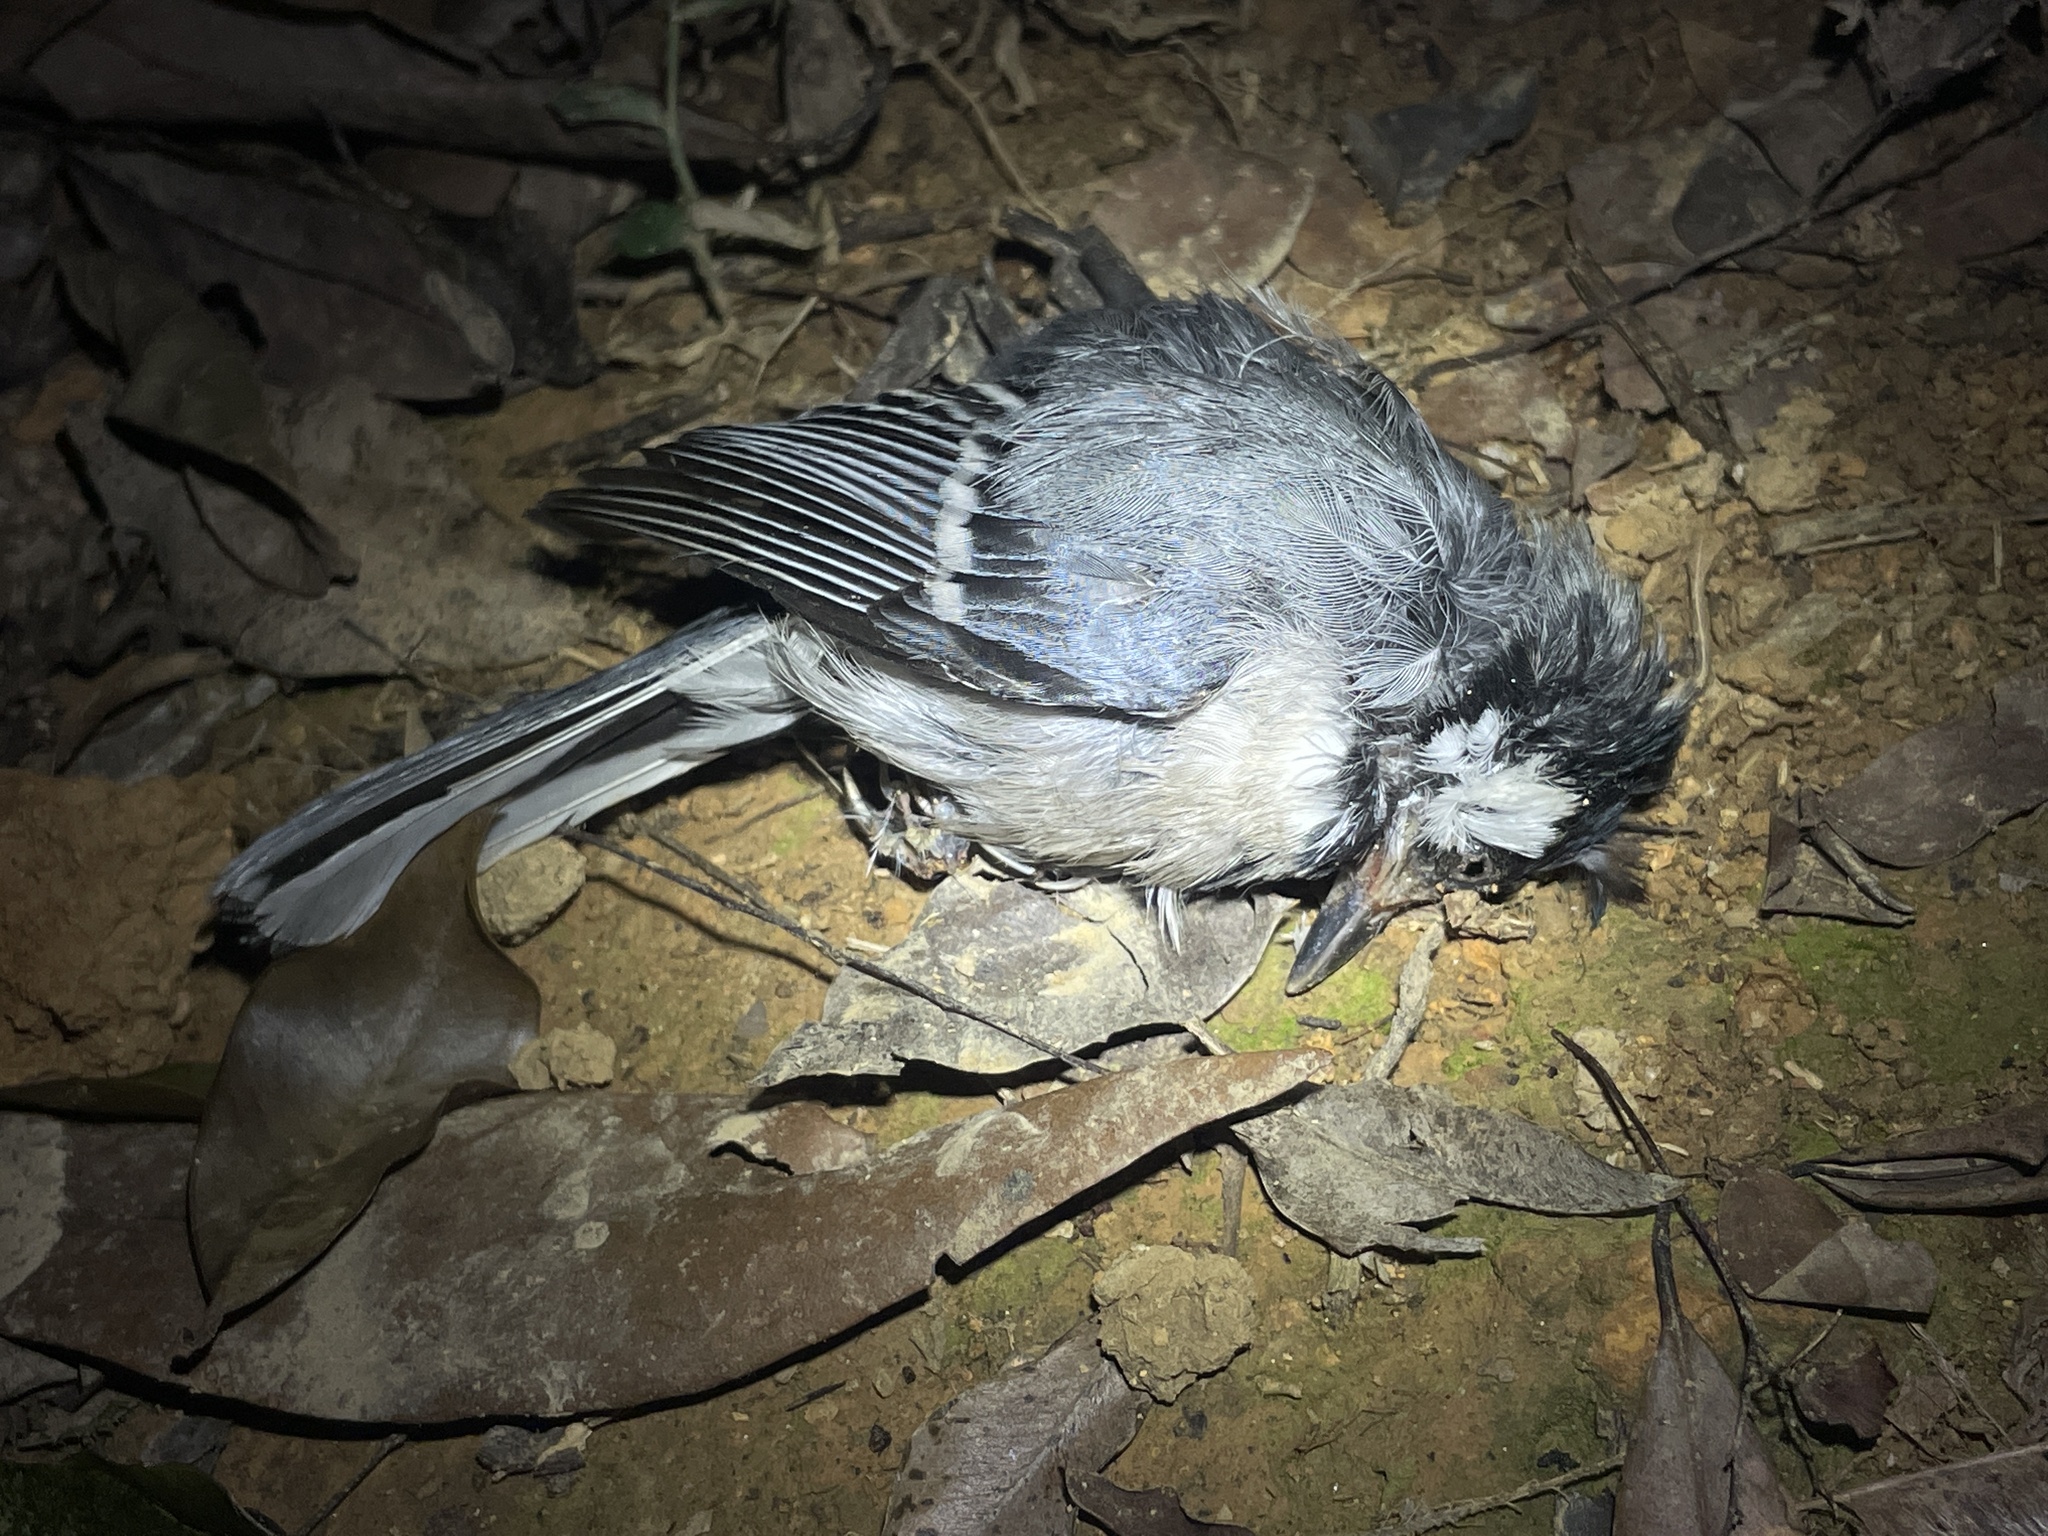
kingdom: Animalia
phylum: Chordata
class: Aves
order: Passeriformes
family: Paridae
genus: Parus
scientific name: Parus minor
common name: Japanese tit
